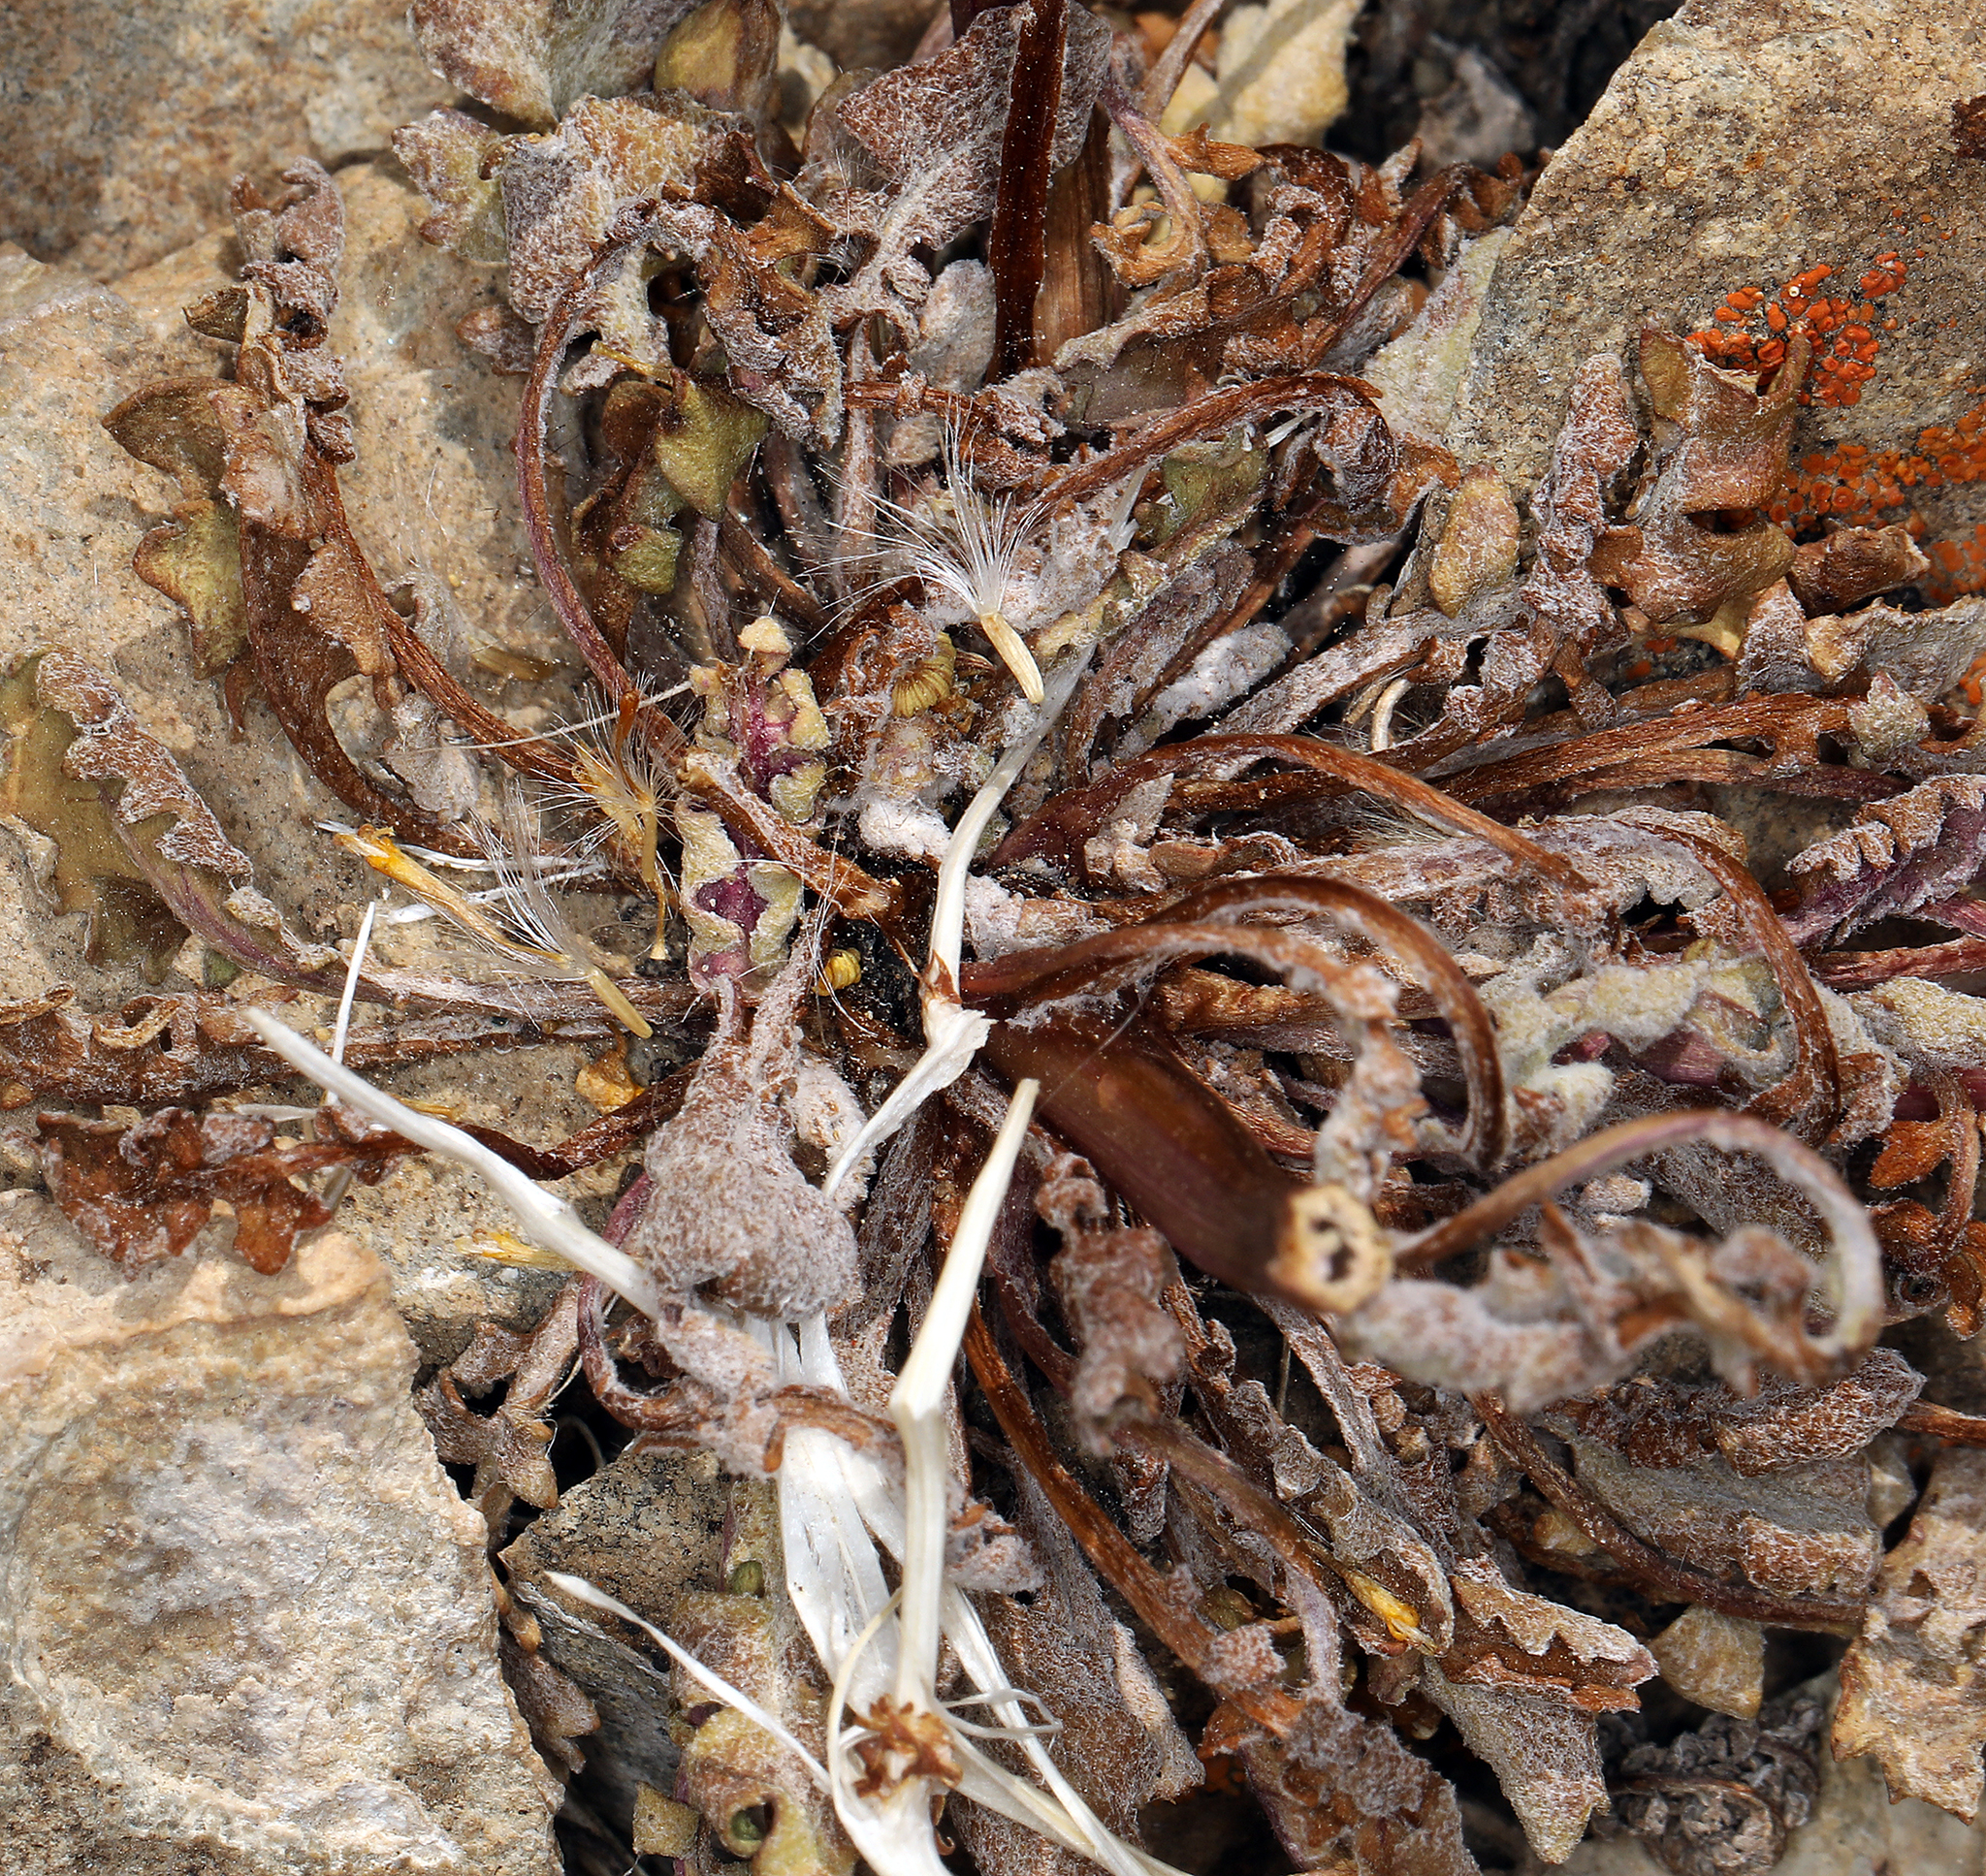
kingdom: Plantae
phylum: Tracheophyta
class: Magnoliopsida
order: Asterales
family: Asteraceae
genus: Packera
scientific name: Packera multilobata
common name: Lobe-leaf groundsel
